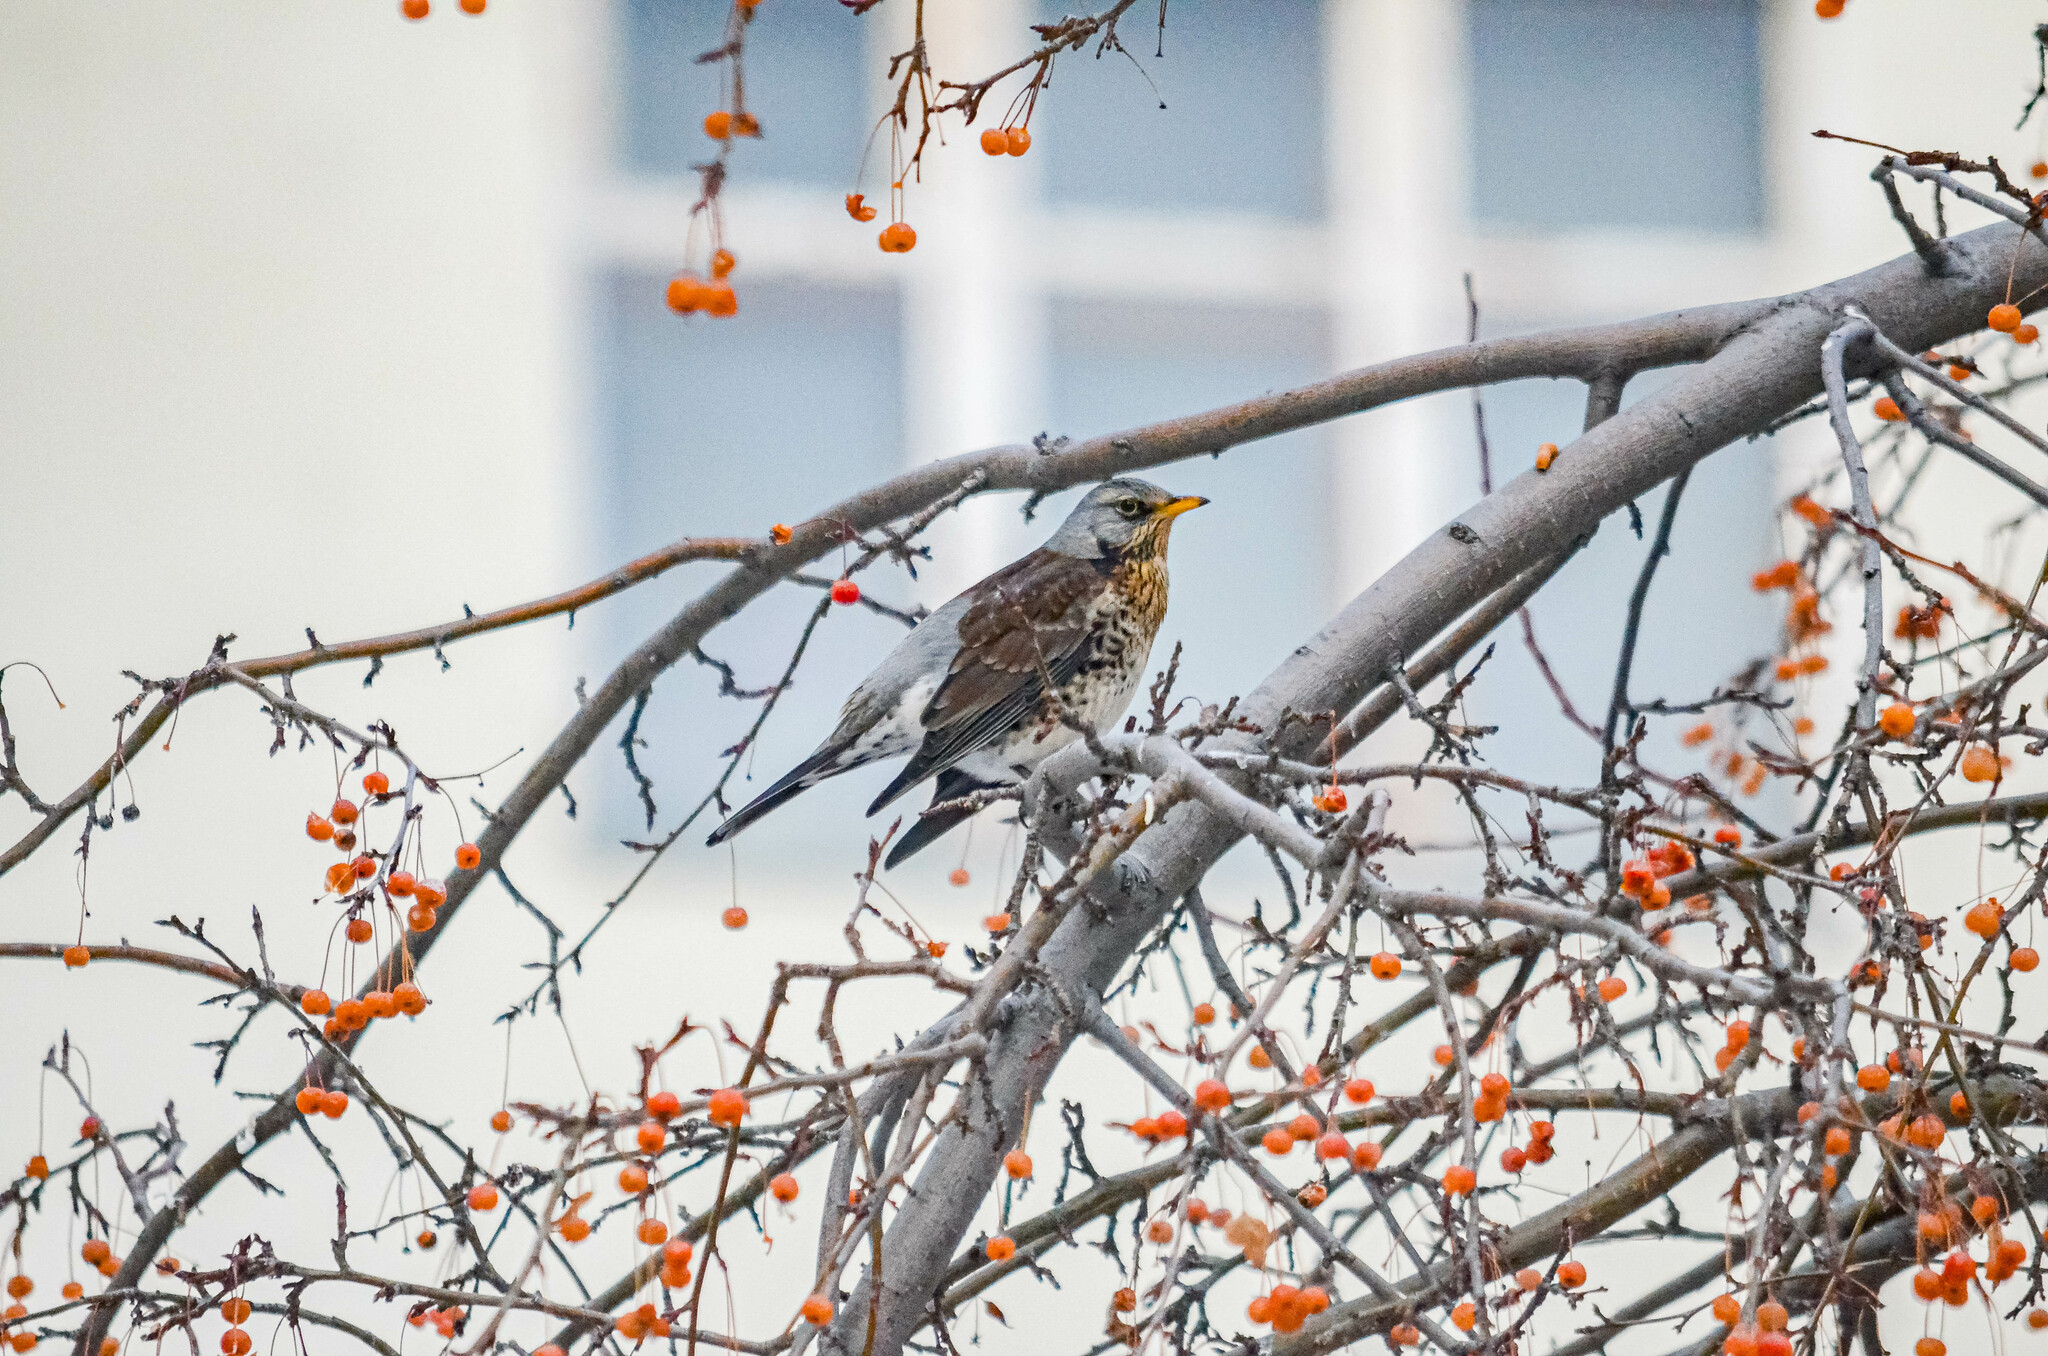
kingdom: Animalia
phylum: Chordata
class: Aves
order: Passeriformes
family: Turdidae
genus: Turdus
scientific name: Turdus pilaris
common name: Fieldfare
